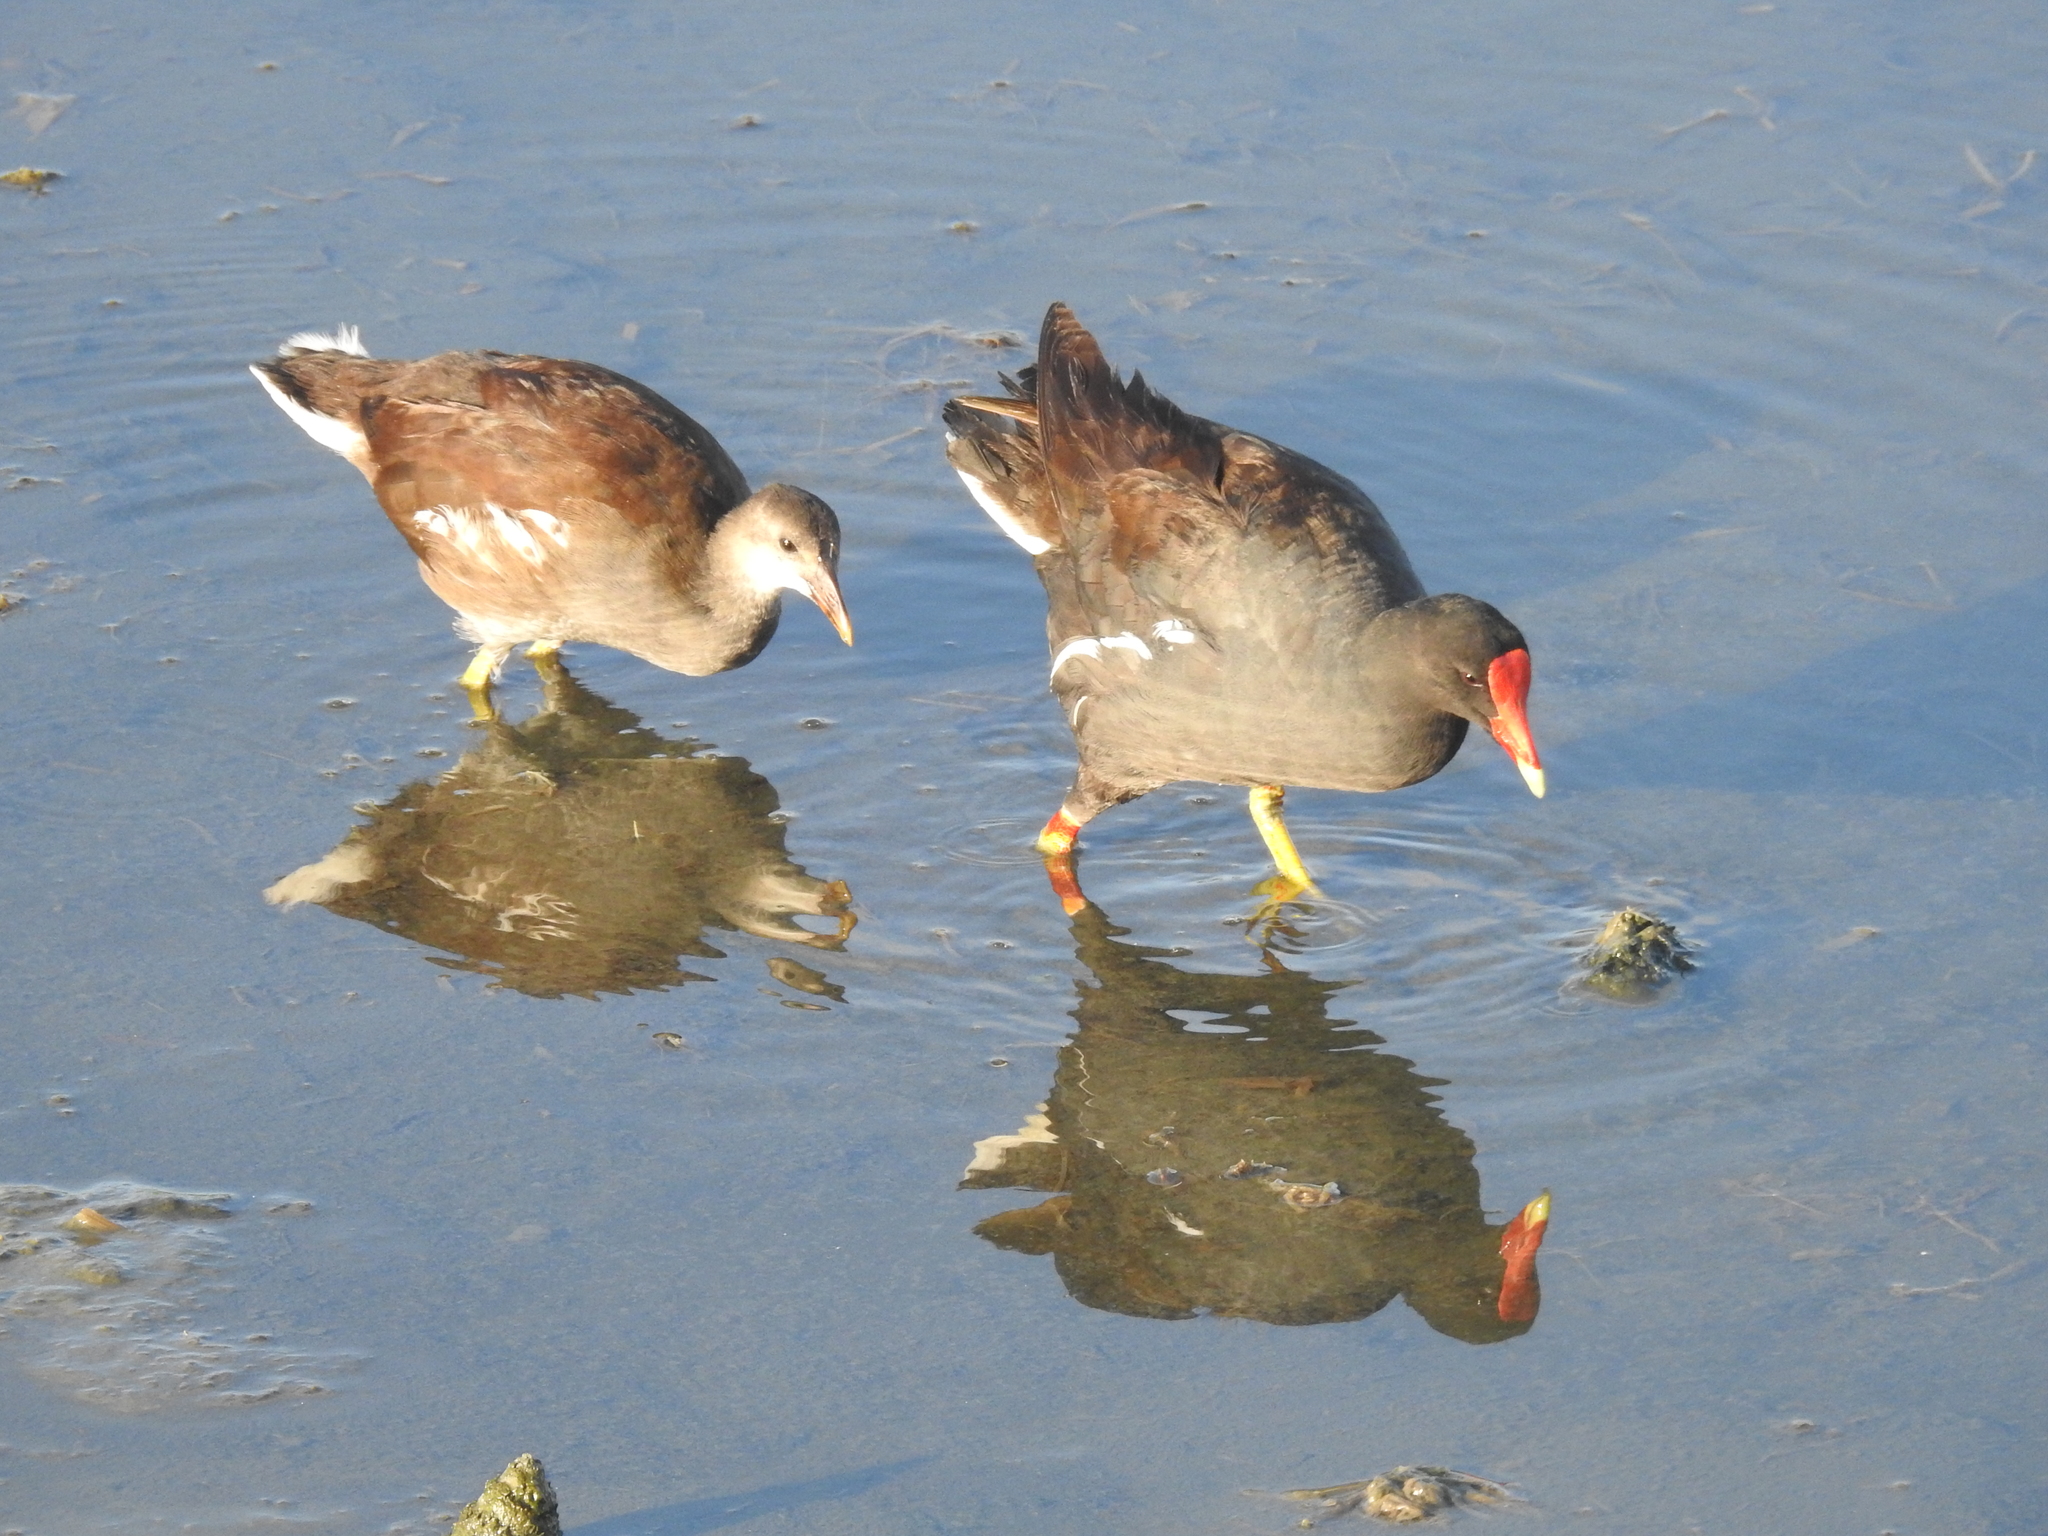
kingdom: Animalia
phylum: Chordata
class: Aves
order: Gruiformes
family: Rallidae
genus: Gallinula
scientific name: Gallinula chloropus
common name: Common moorhen
